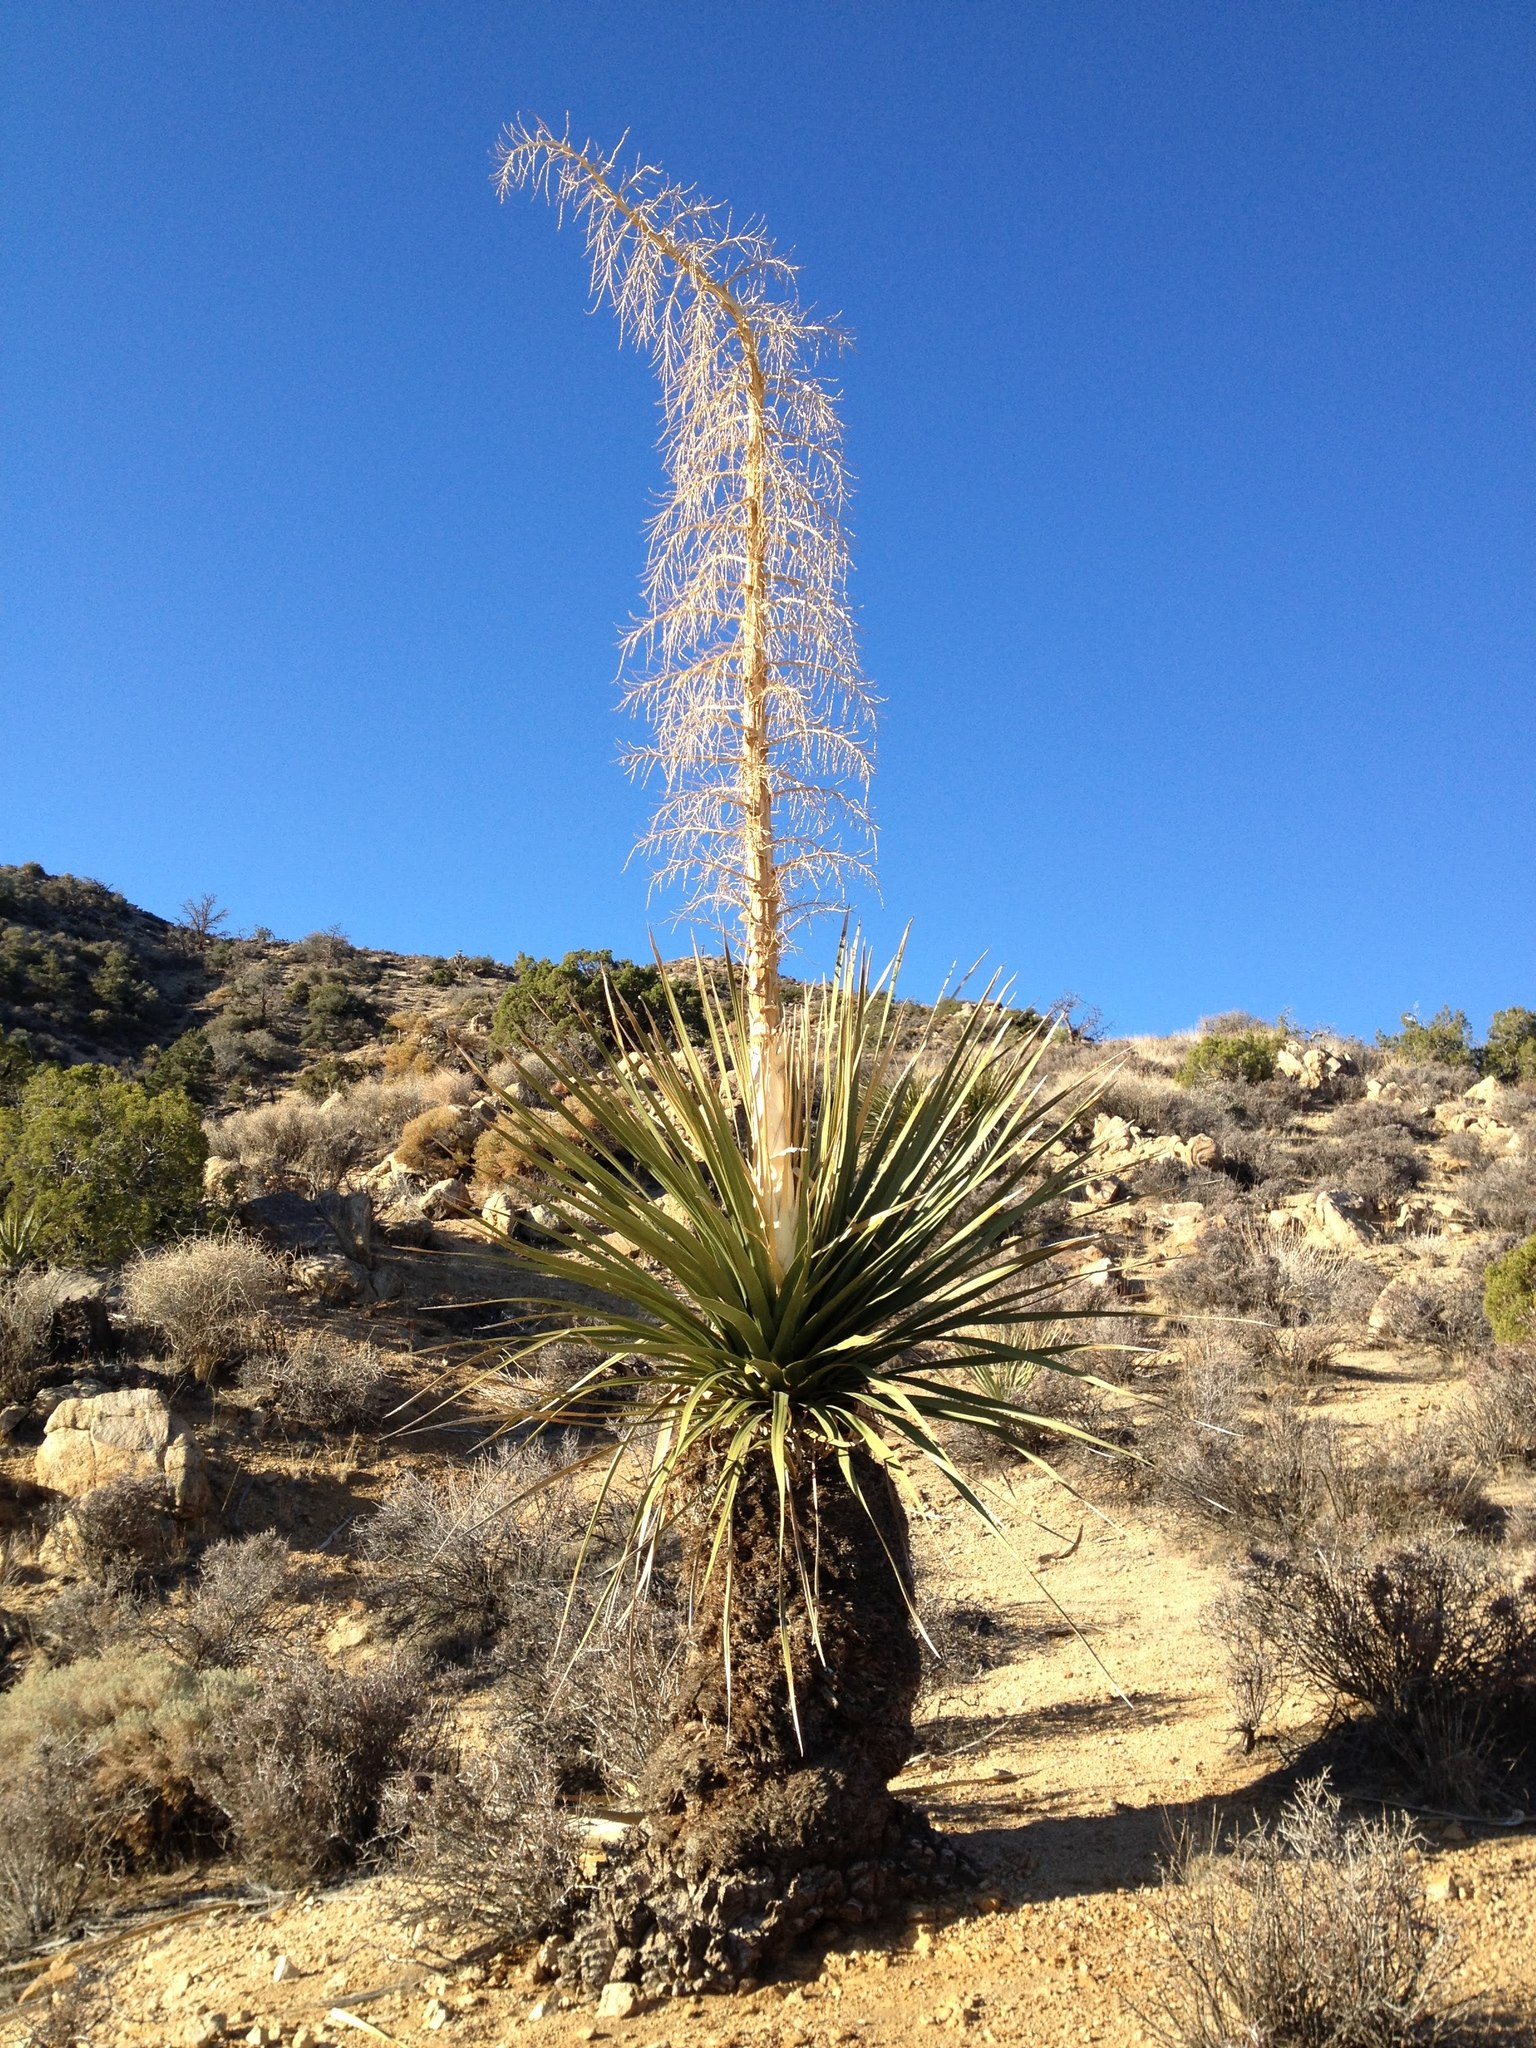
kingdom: Plantae
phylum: Tracheophyta
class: Liliopsida
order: Asparagales
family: Asparagaceae
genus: Nolina
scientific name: Nolina parryi
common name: Parry nolina
